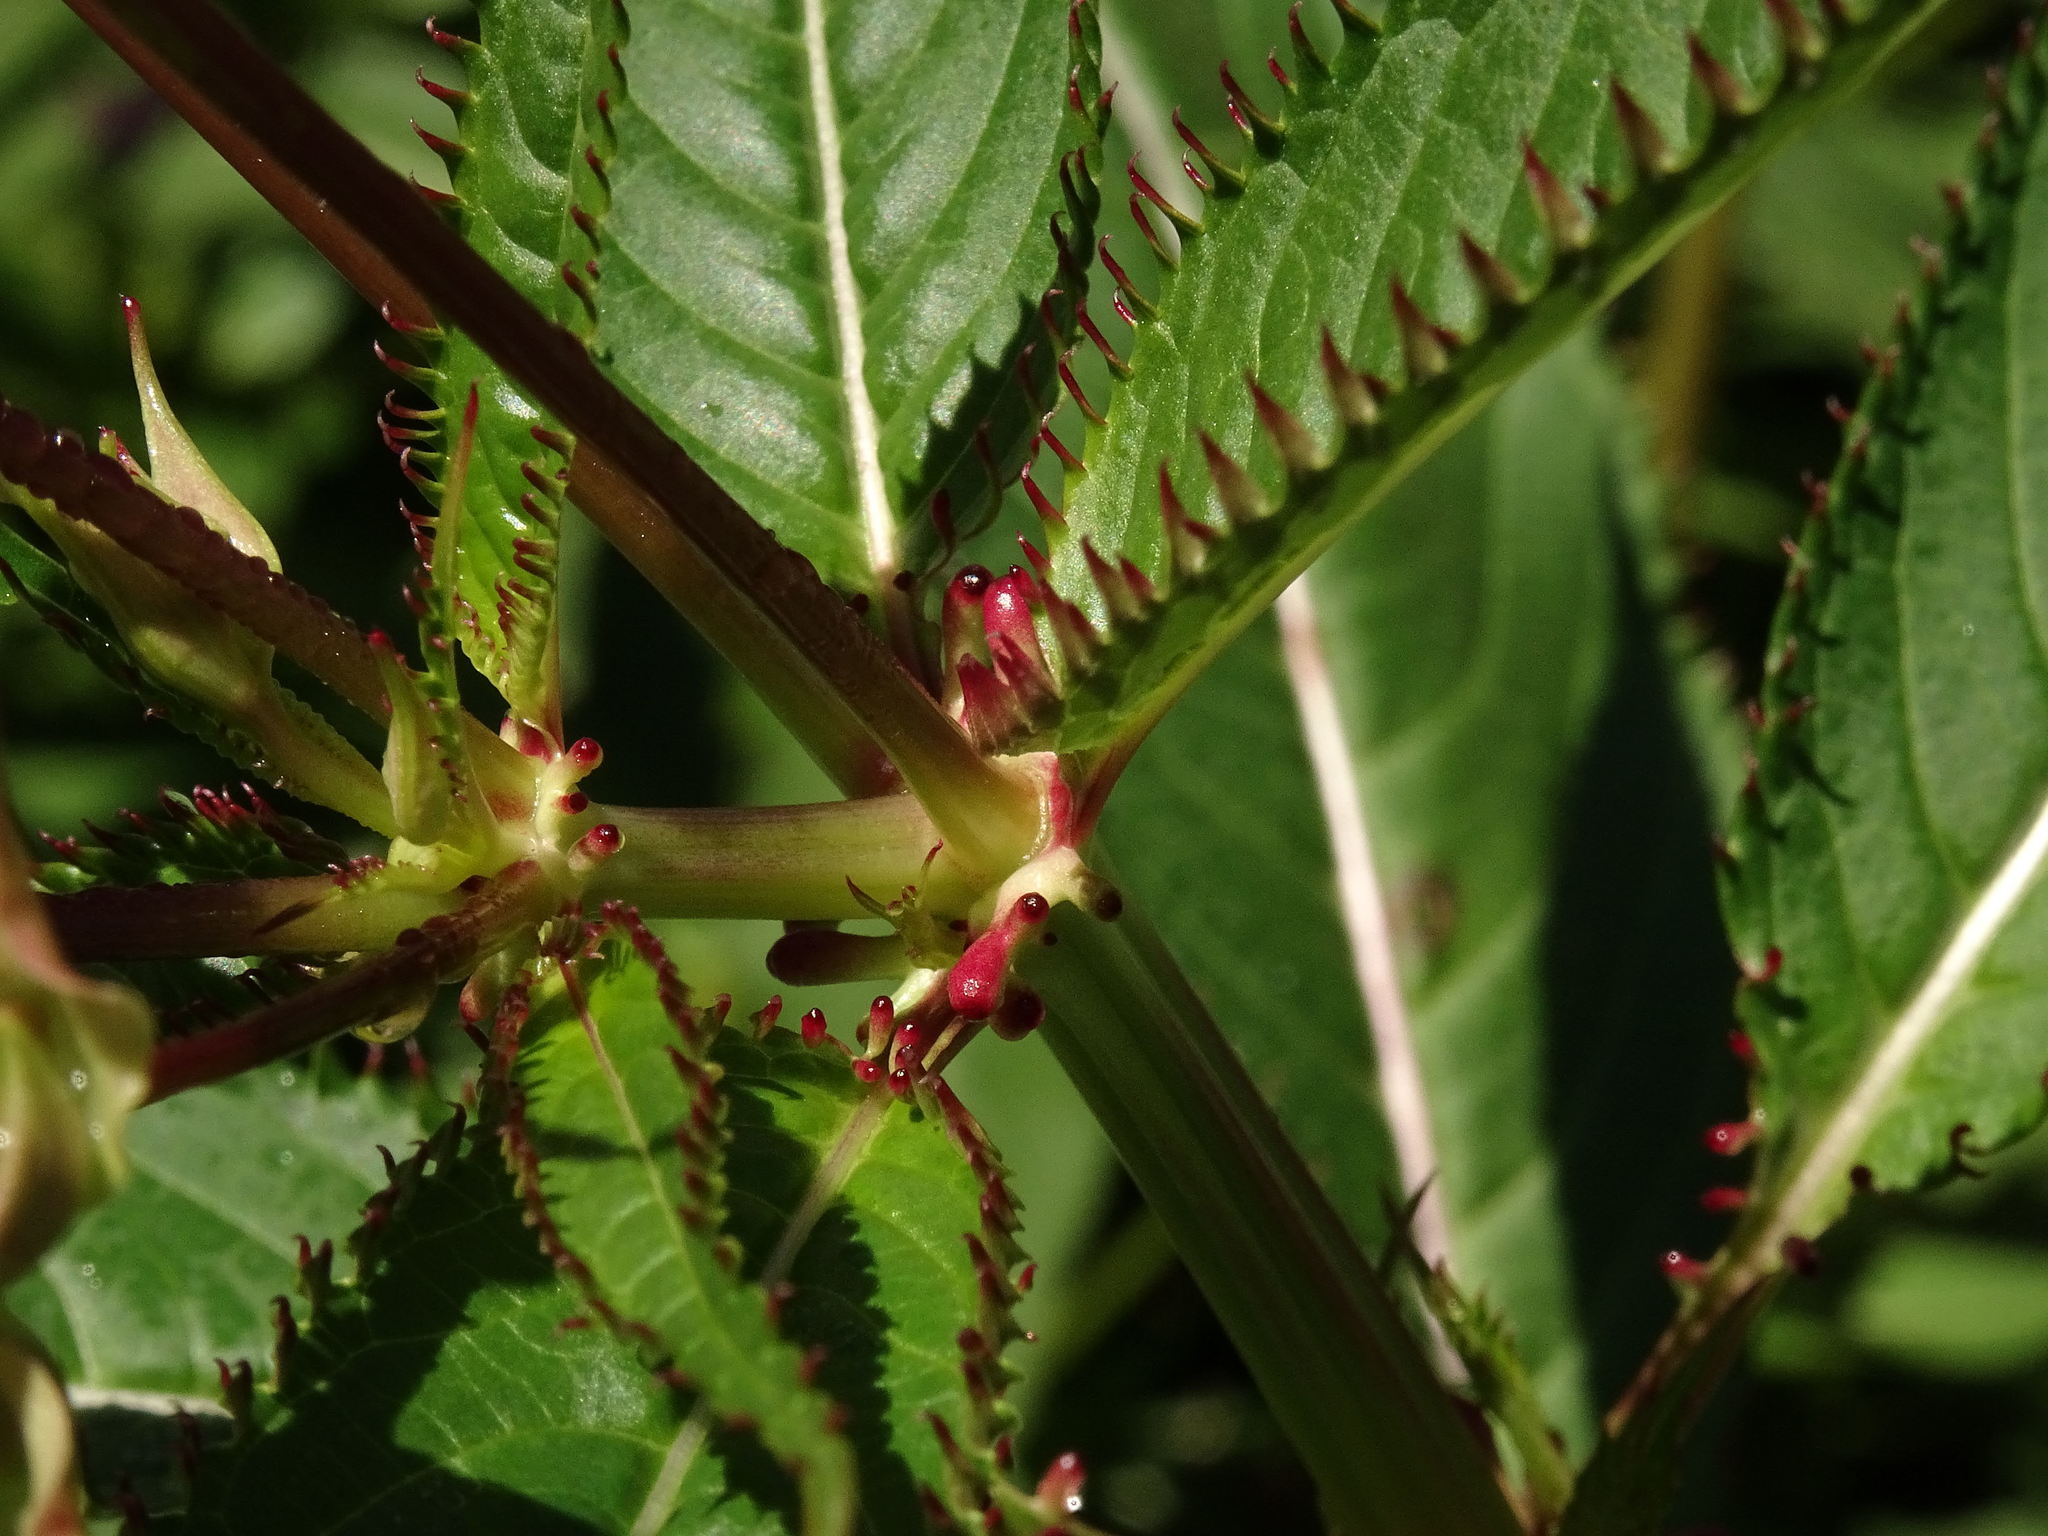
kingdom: Plantae
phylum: Tracheophyta
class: Magnoliopsida
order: Ericales
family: Balsaminaceae
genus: Impatiens
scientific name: Impatiens glandulifera
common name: Himalayan balsam
